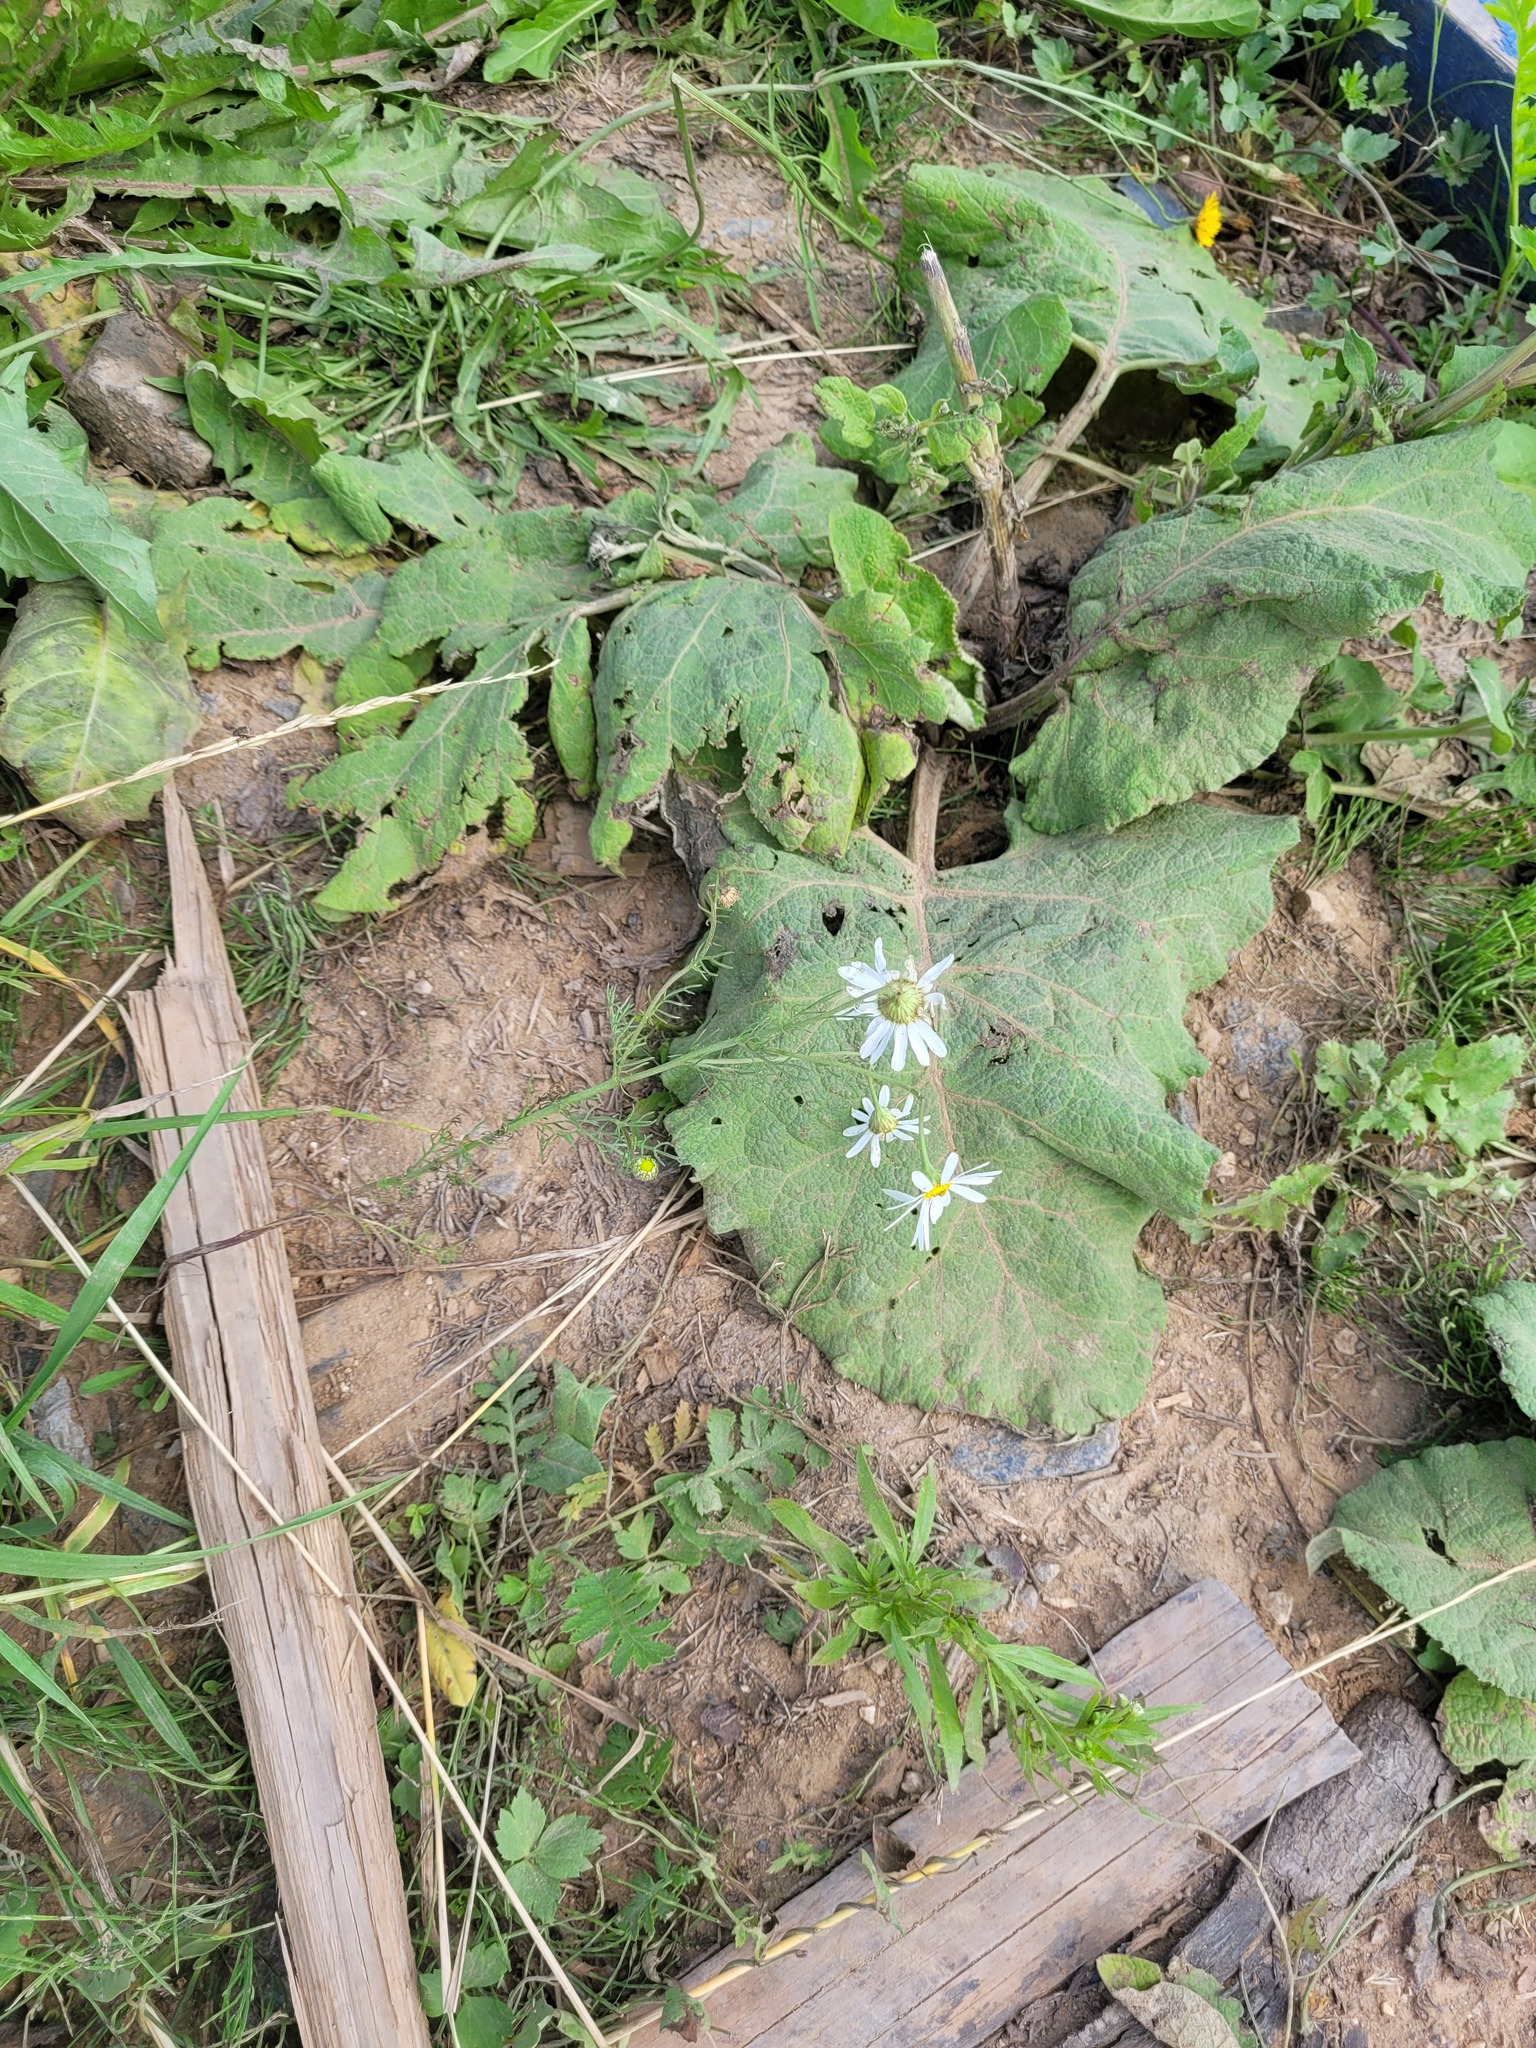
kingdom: Plantae
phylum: Tracheophyta
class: Magnoliopsida
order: Asterales
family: Asteraceae
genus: Tripleurospermum
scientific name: Tripleurospermum inodorum
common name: Scentless mayweed
